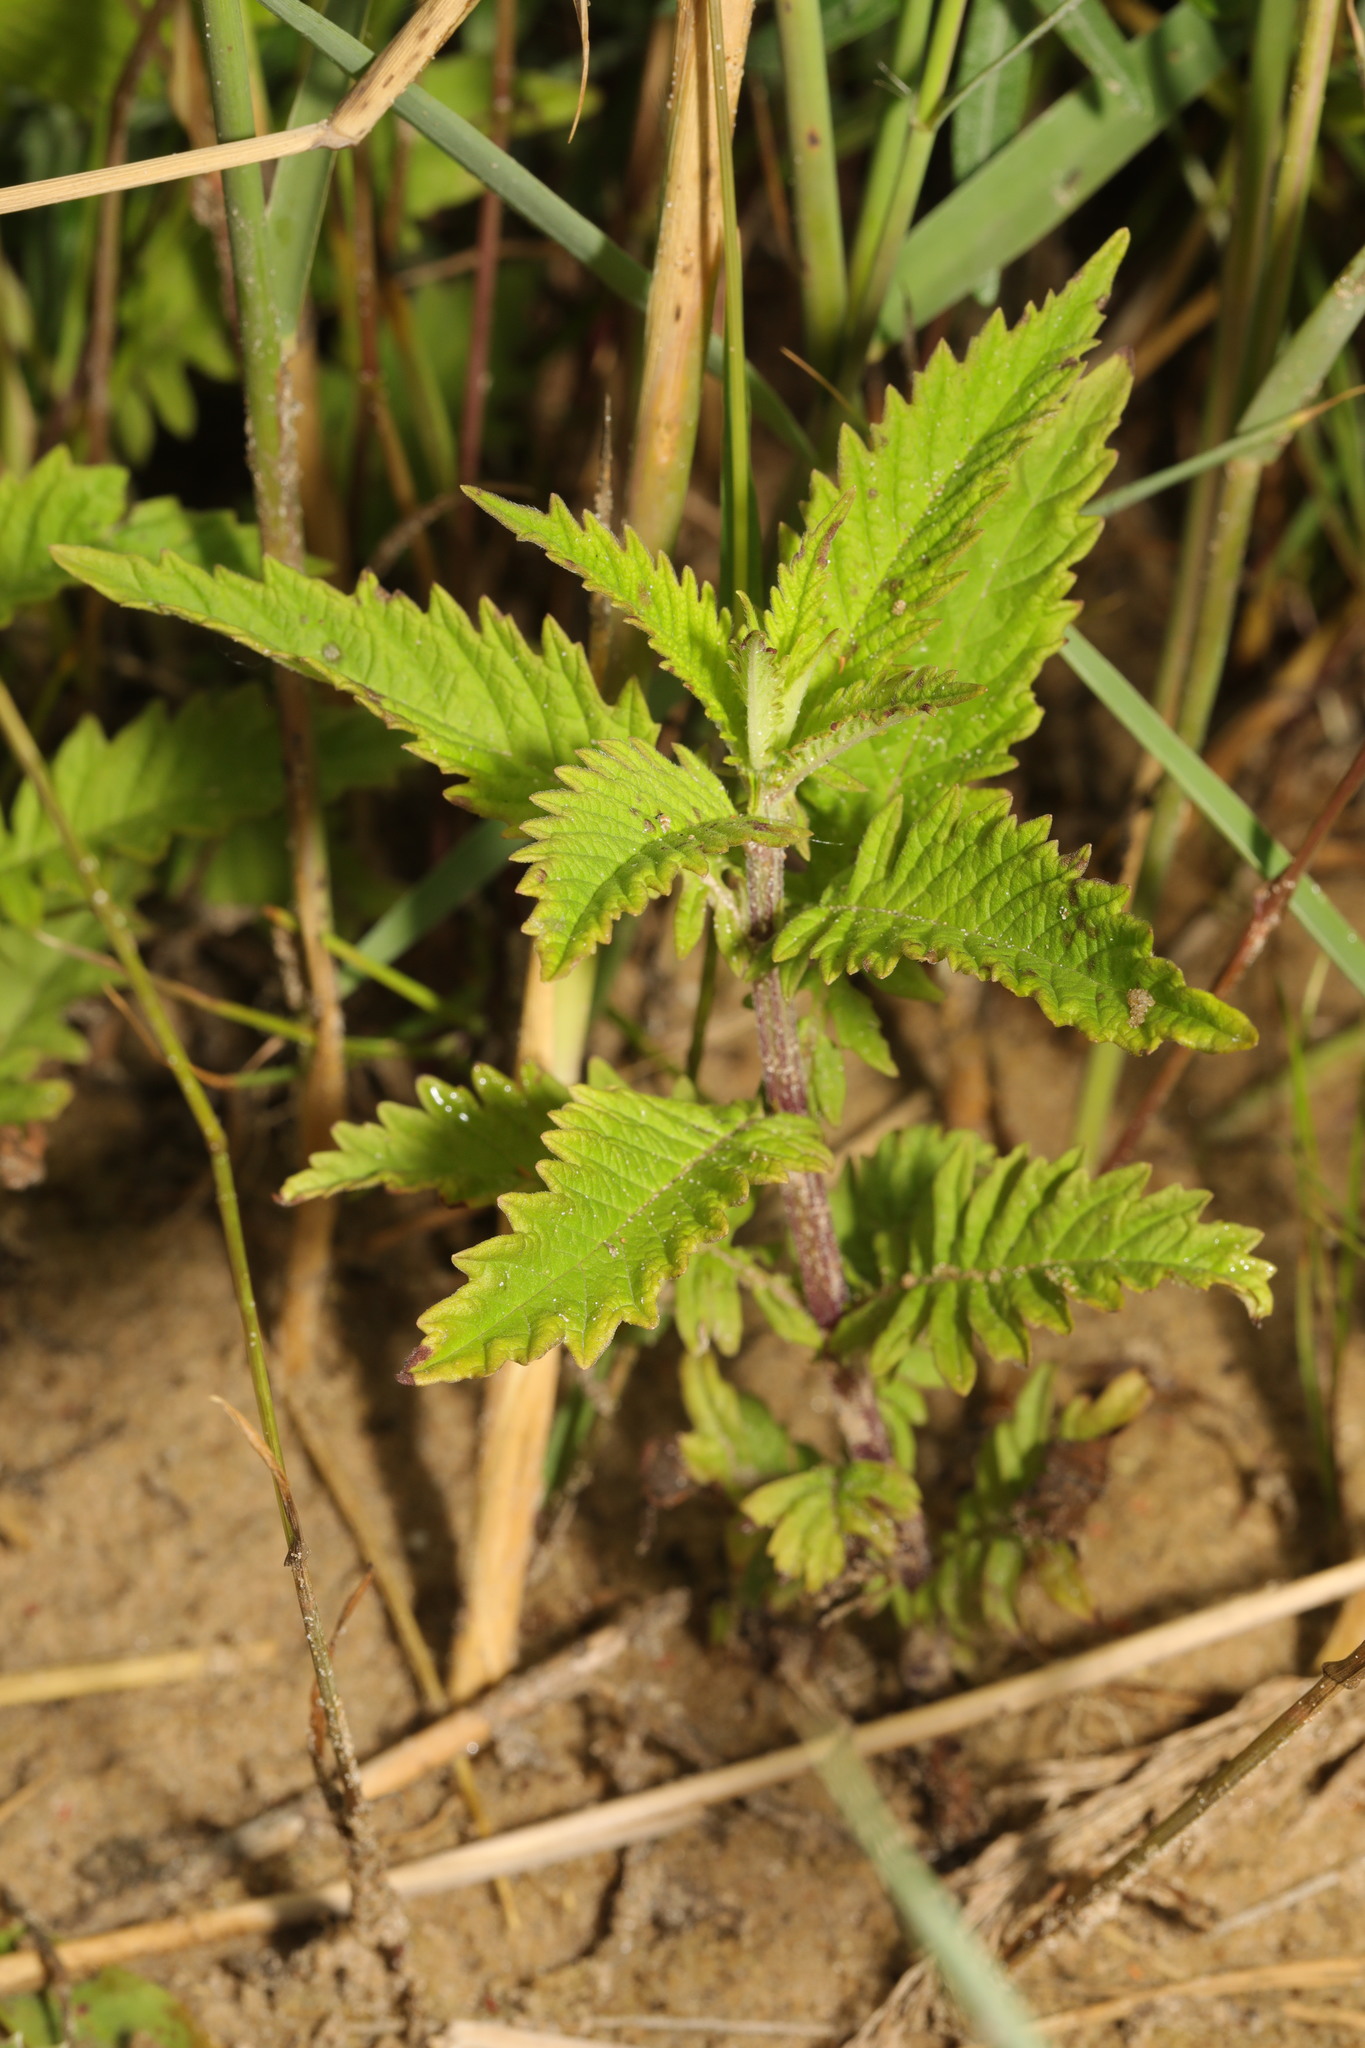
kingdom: Plantae
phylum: Tracheophyta
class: Magnoliopsida
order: Lamiales
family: Lamiaceae
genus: Lycopus
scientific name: Lycopus europaeus
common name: European bugleweed
